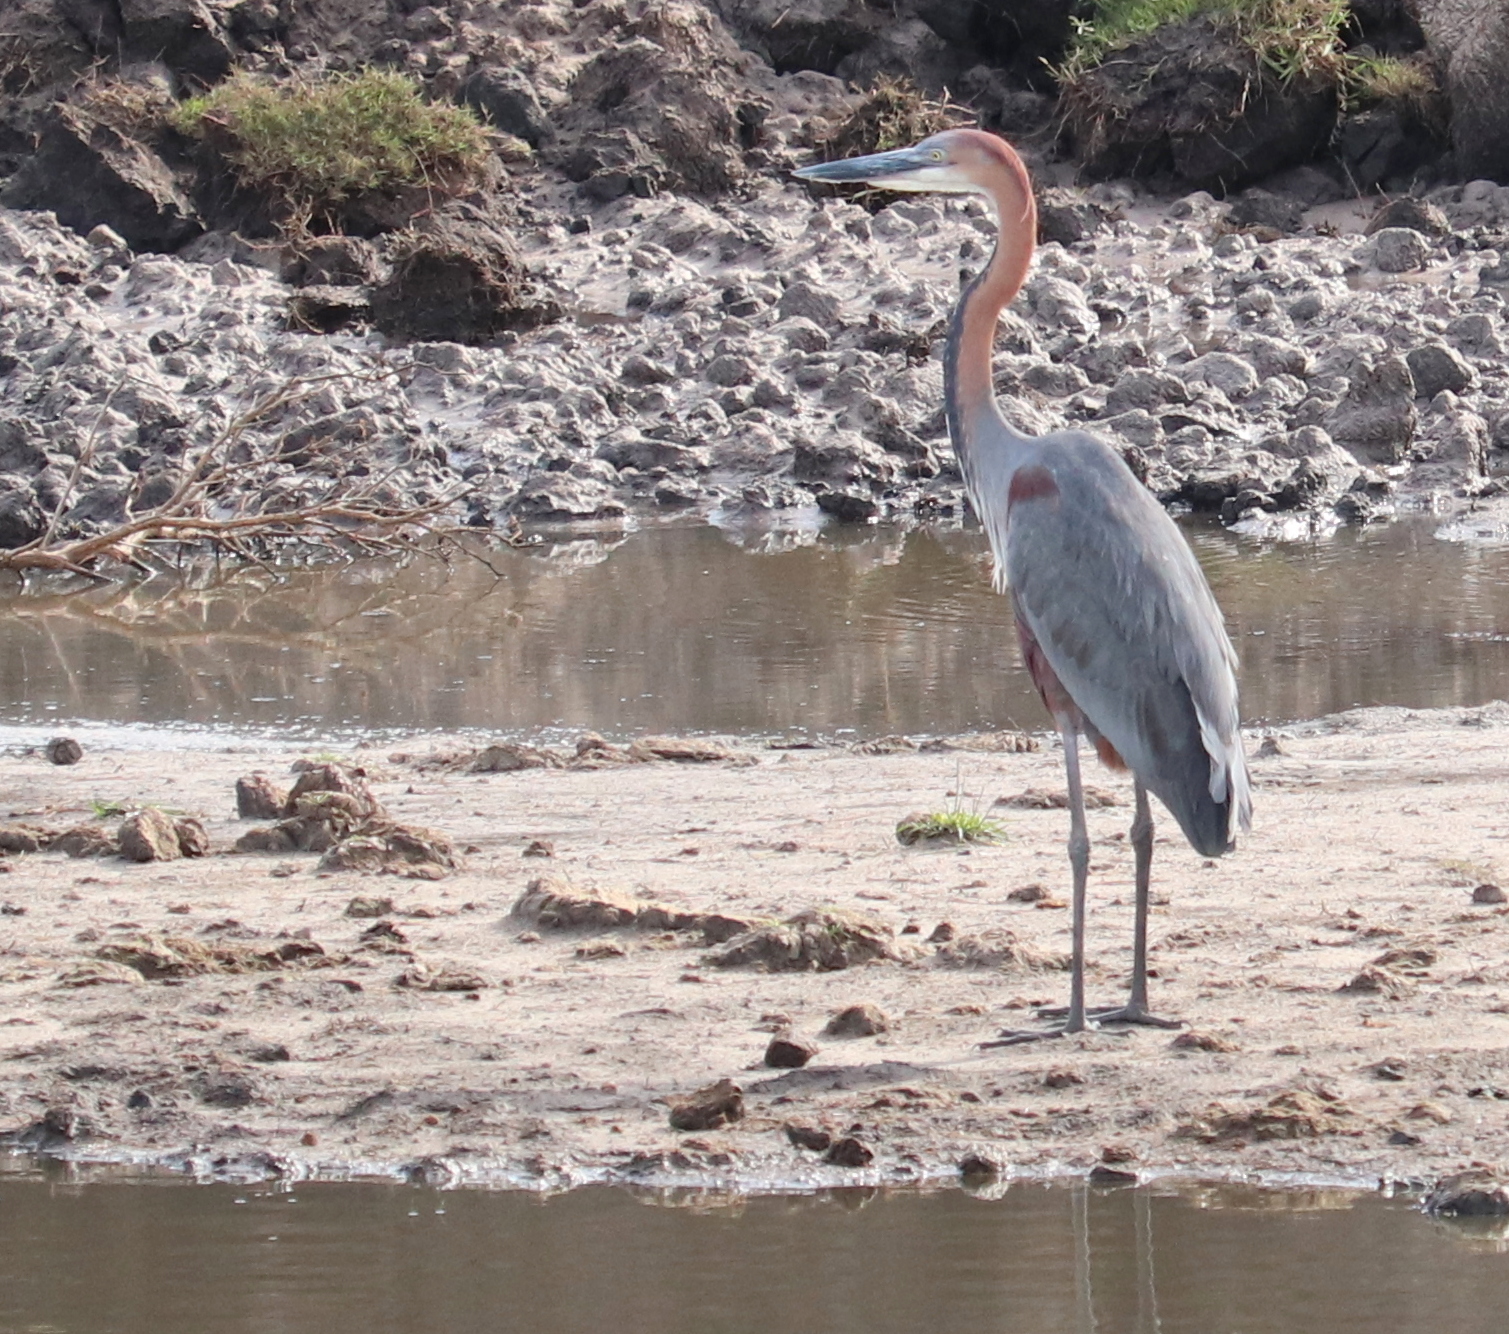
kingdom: Animalia
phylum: Chordata
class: Aves
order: Pelecaniformes
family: Ardeidae
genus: Ardea
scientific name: Ardea goliath
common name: Goliath heron
